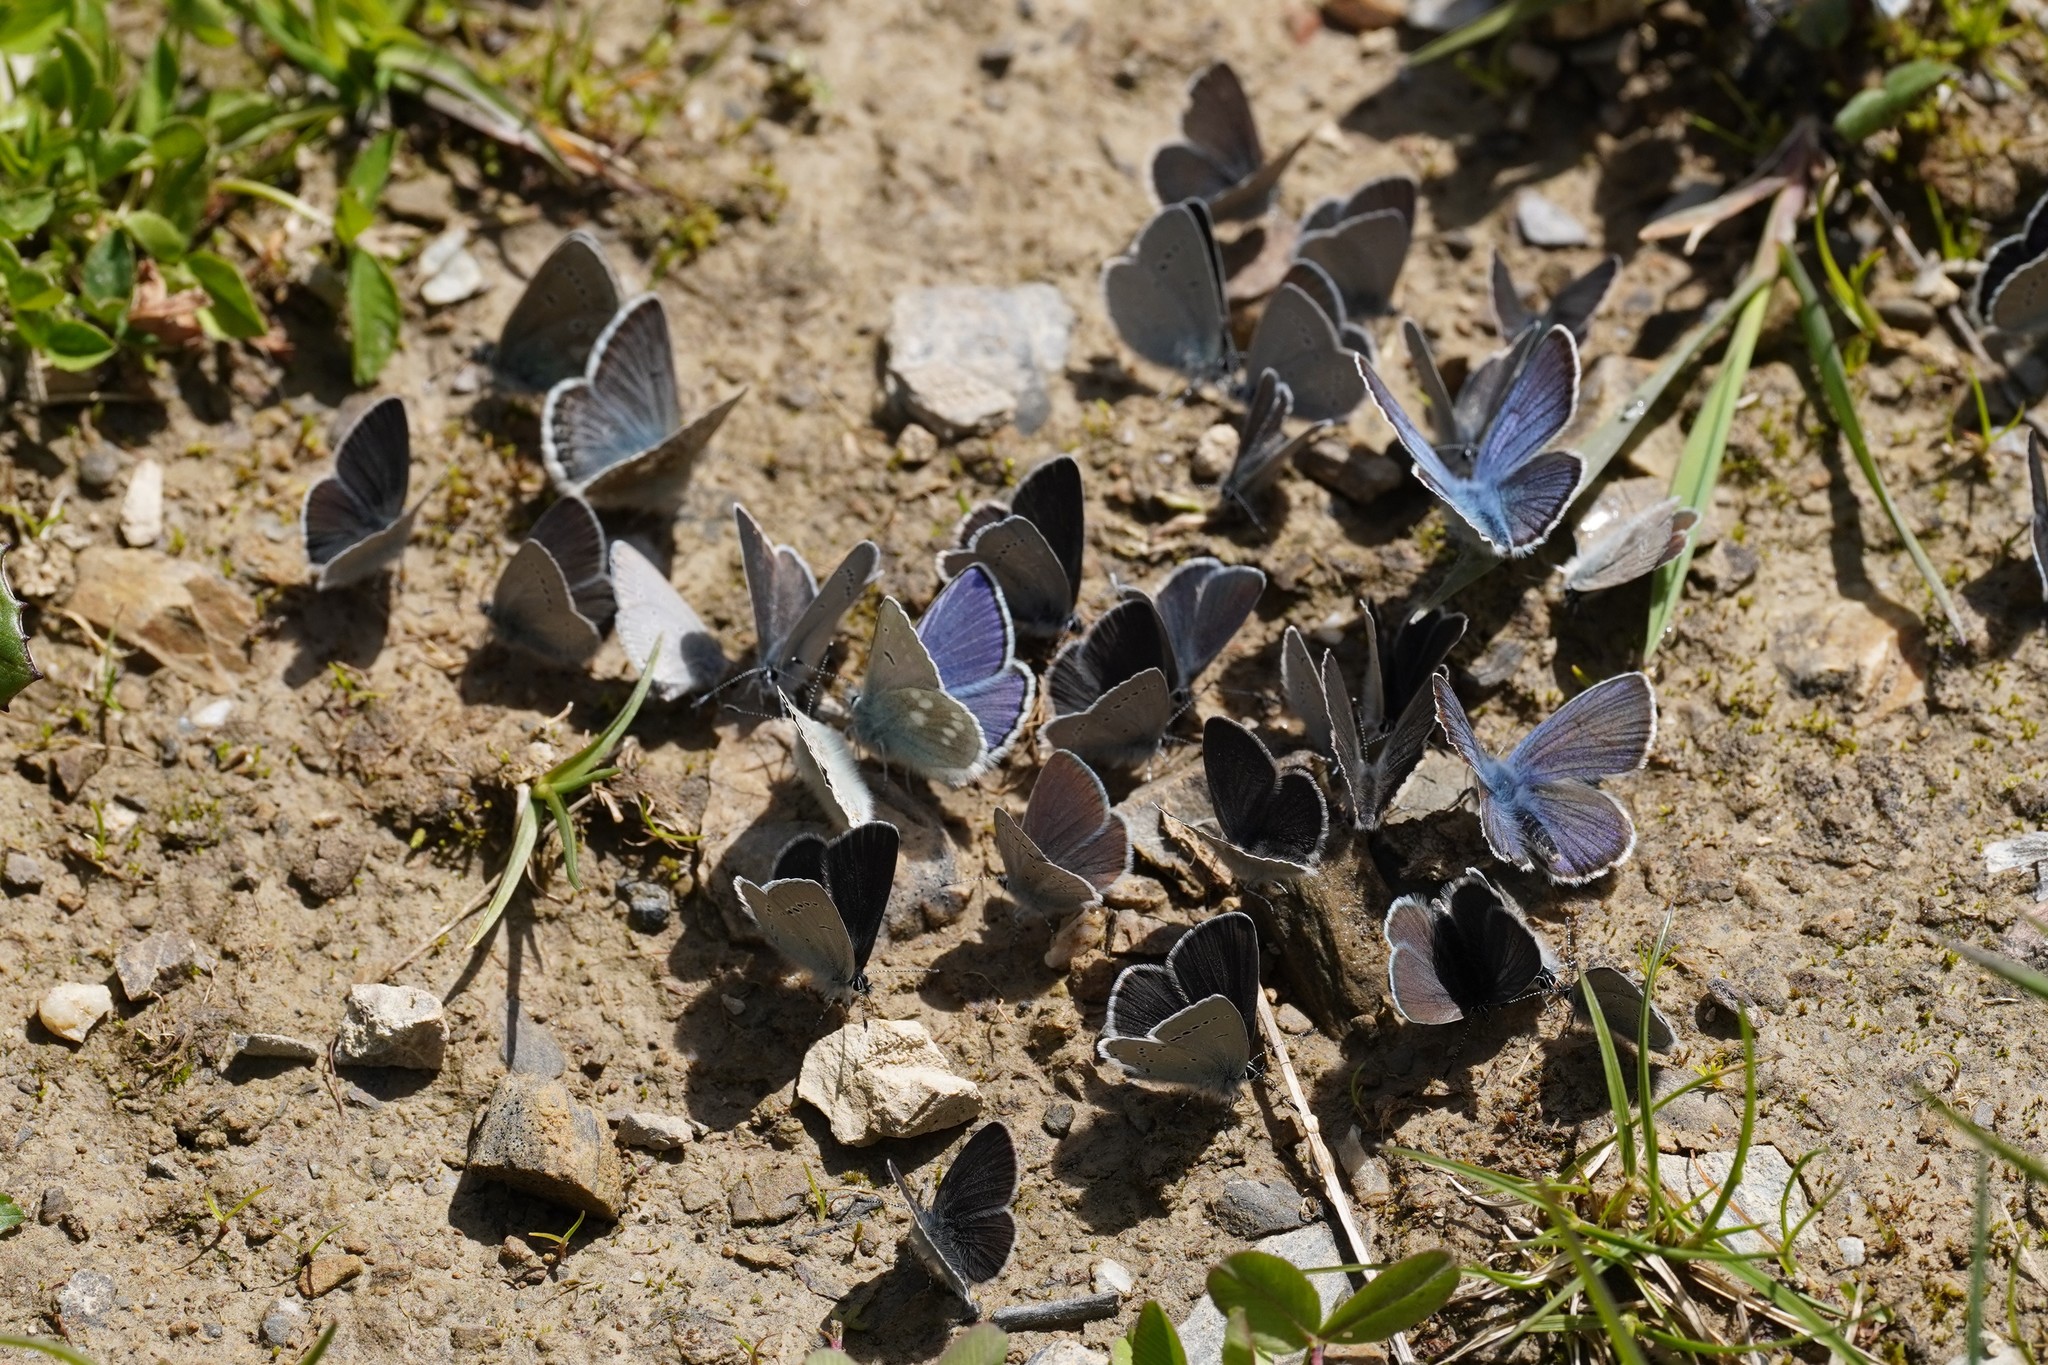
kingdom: Animalia
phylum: Arthropoda
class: Insecta
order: Lepidoptera
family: Lycaenidae
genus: Albulina
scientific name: Albulina orbitulus
